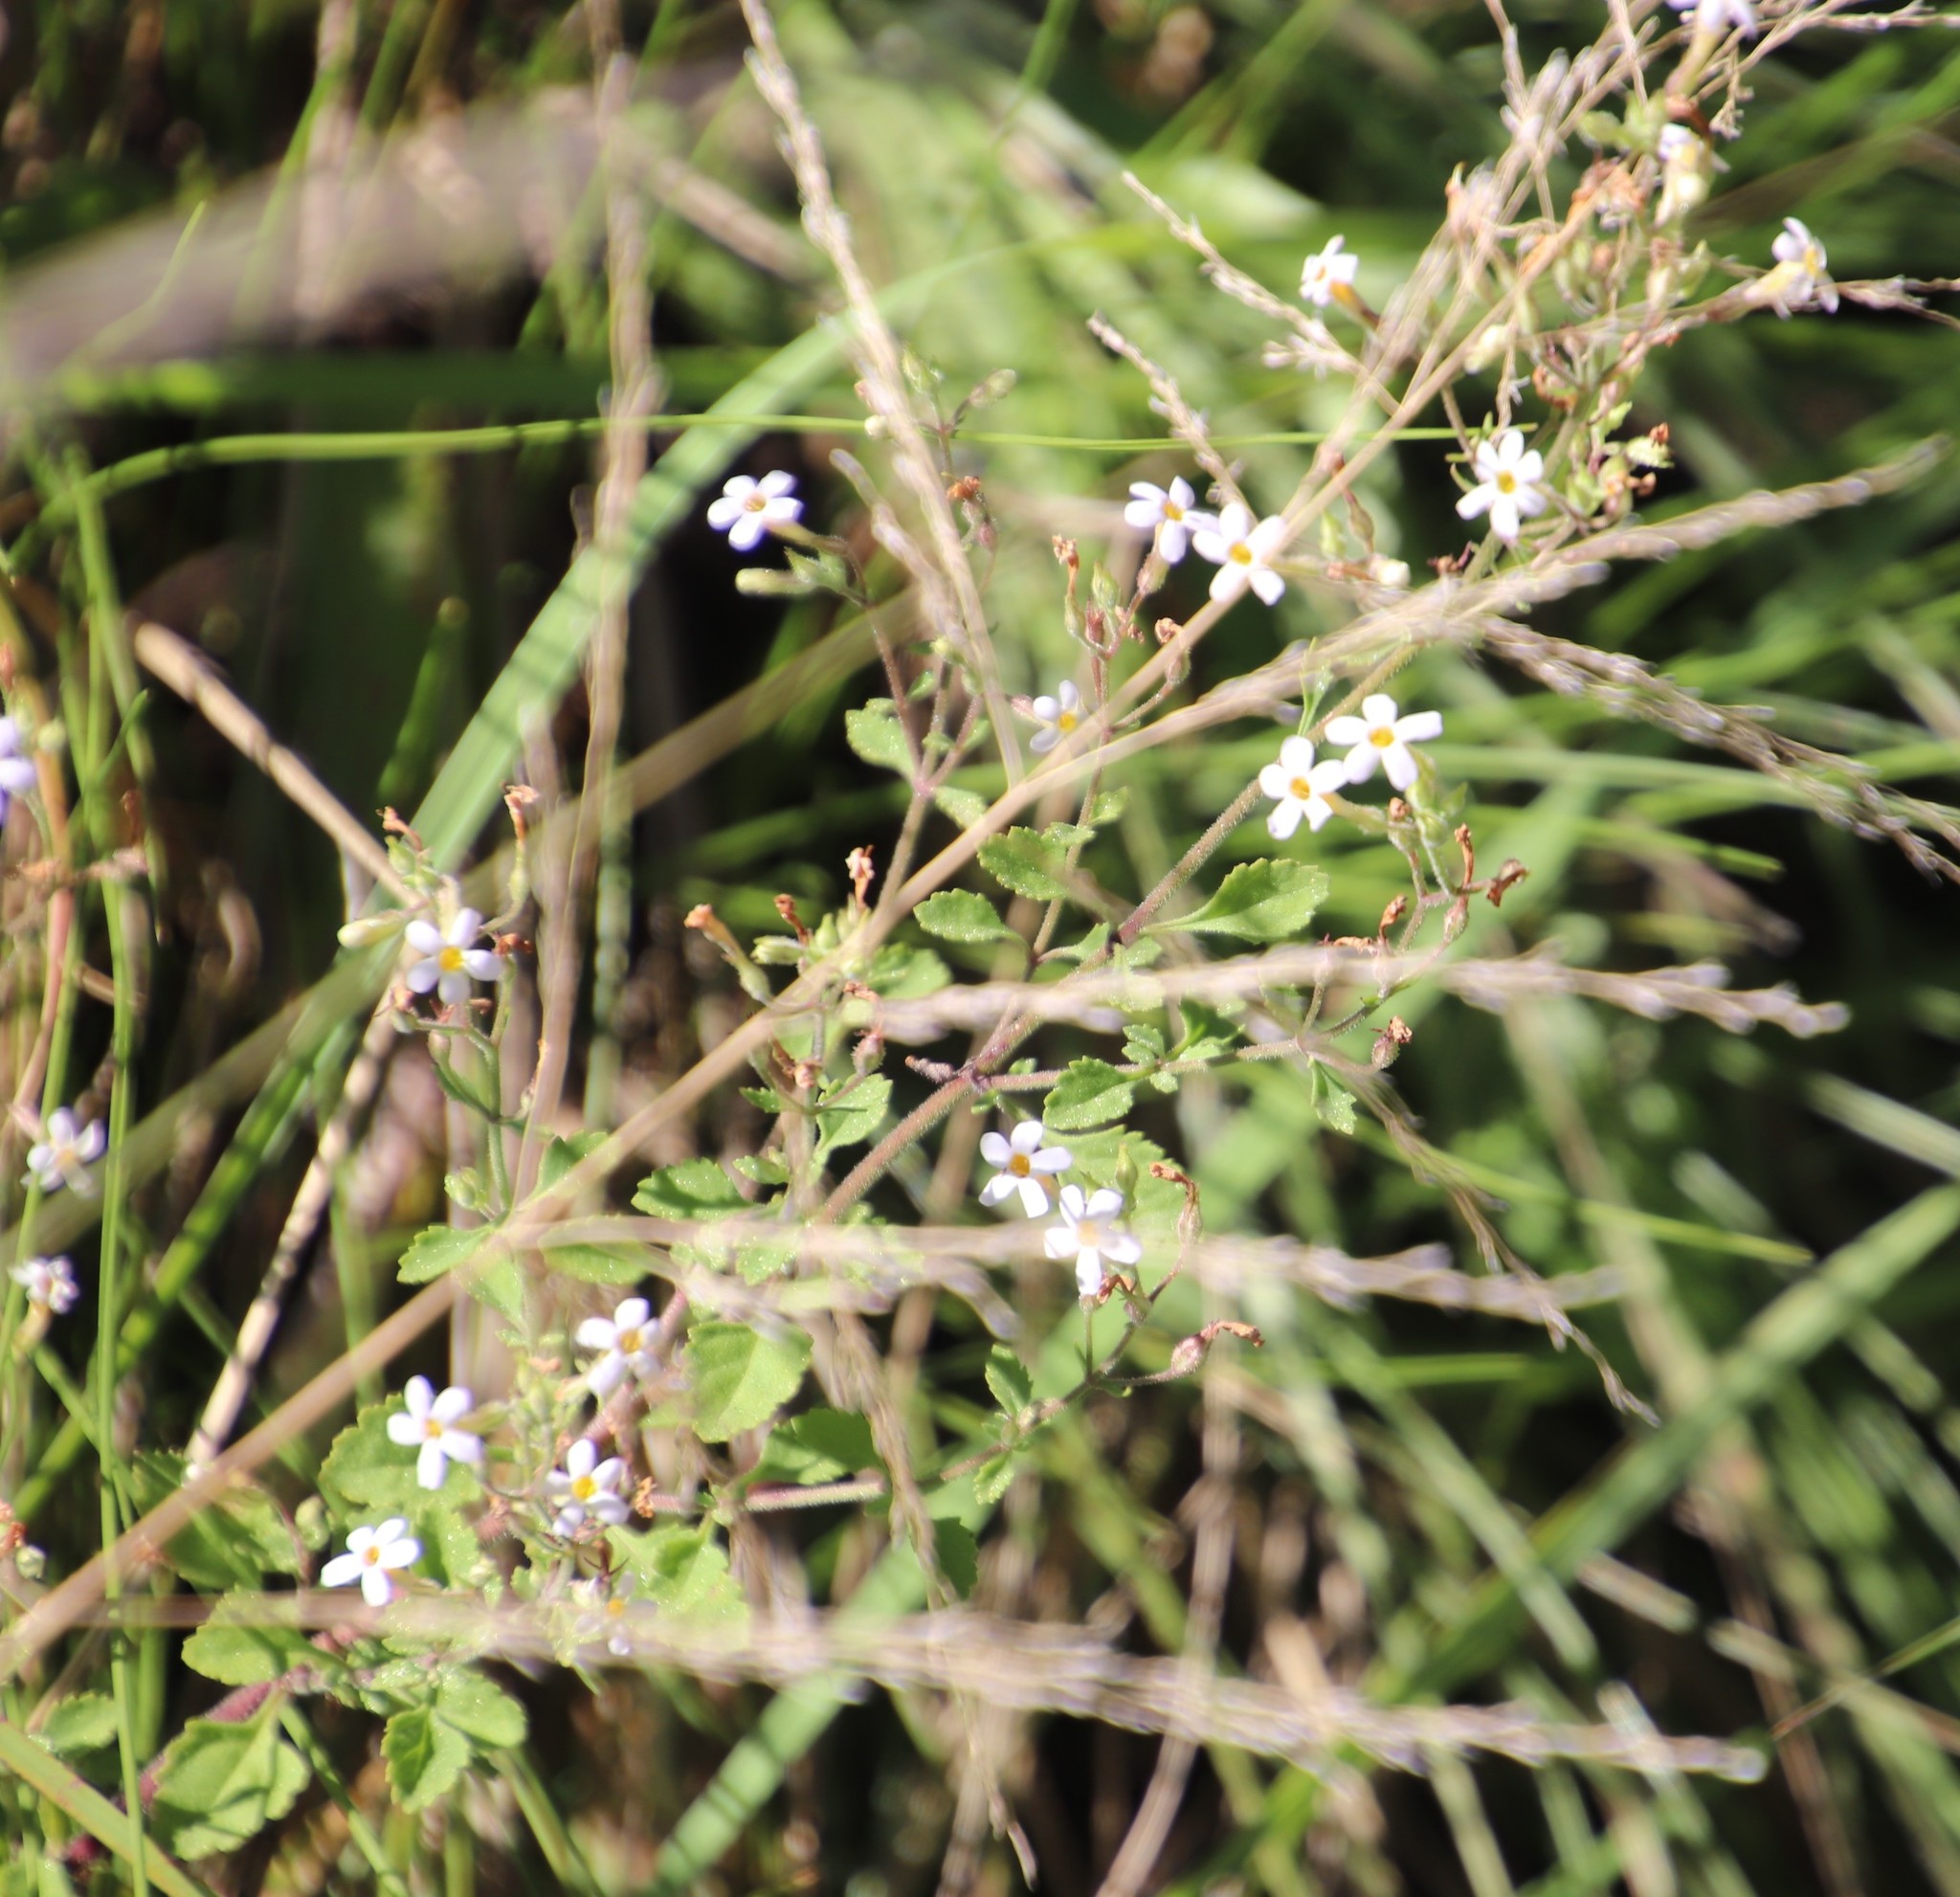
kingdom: Plantae
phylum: Tracheophyta
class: Magnoliopsida
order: Lamiales
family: Scrophulariaceae
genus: Chaenostoma
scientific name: Chaenostoma floribundum
